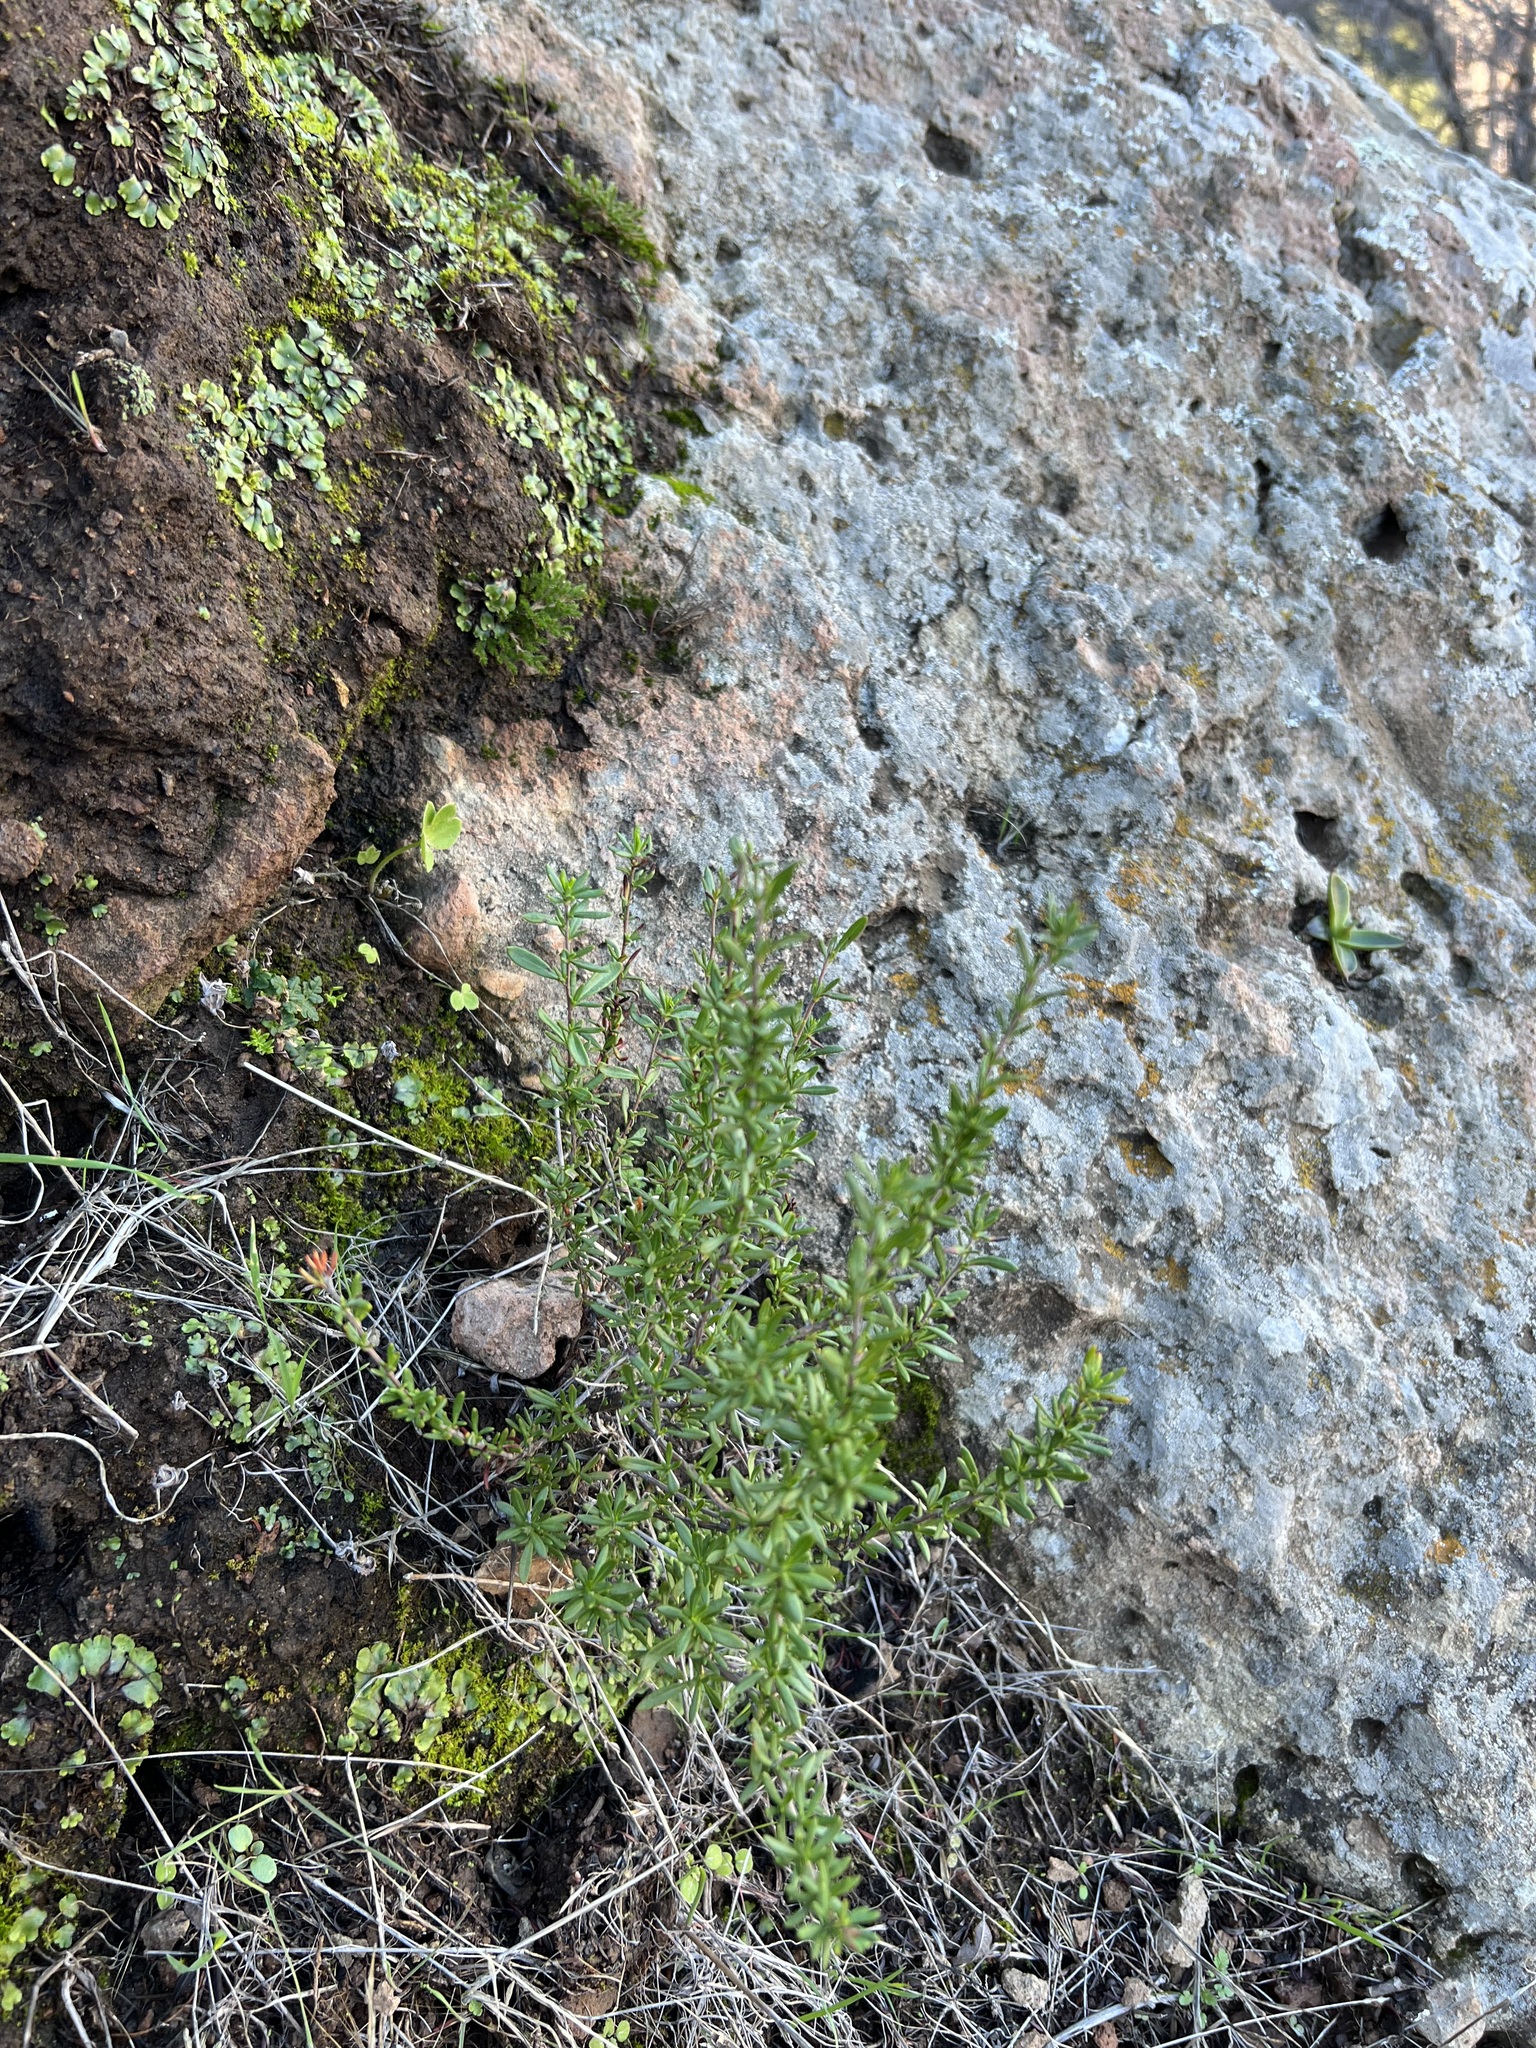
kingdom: Plantae
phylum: Tracheophyta
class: Magnoliopsida
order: Caryophyllales
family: Polygonaceae
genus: Eriogonum
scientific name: Eriogonum fasciculatum
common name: California wild buckwheat
